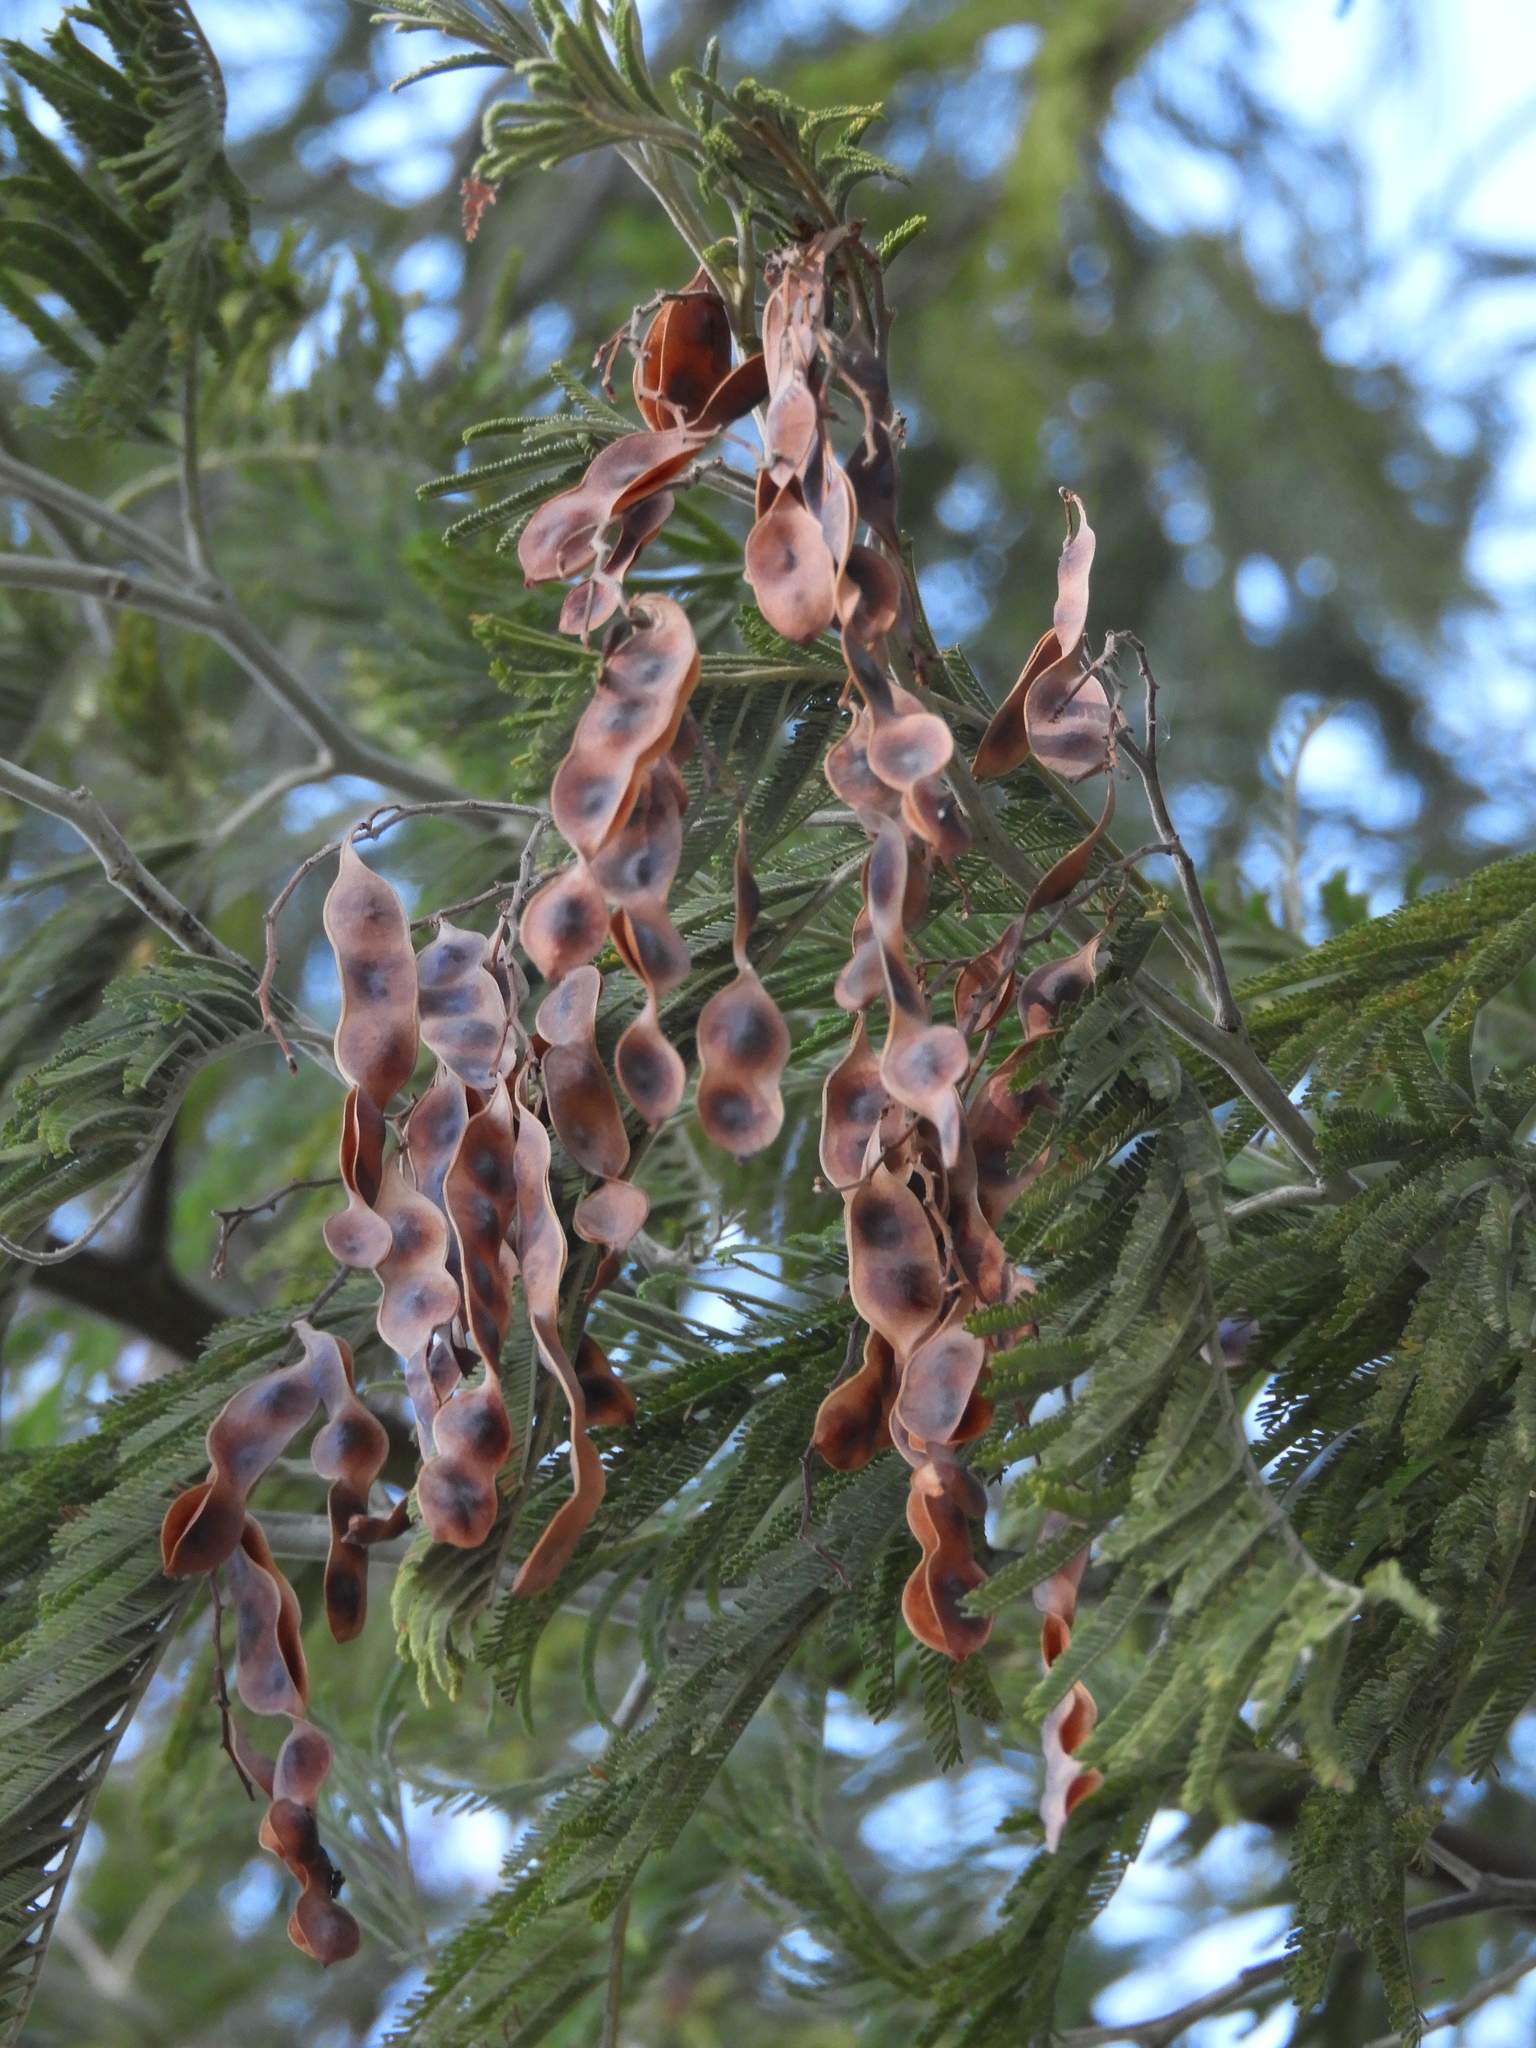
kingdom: Plantae
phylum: Tracheophyta
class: Magnoliopsida
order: Fabales
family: Fabaceae
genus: Acacia
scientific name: Acacia dealbata
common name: Silver wattle
